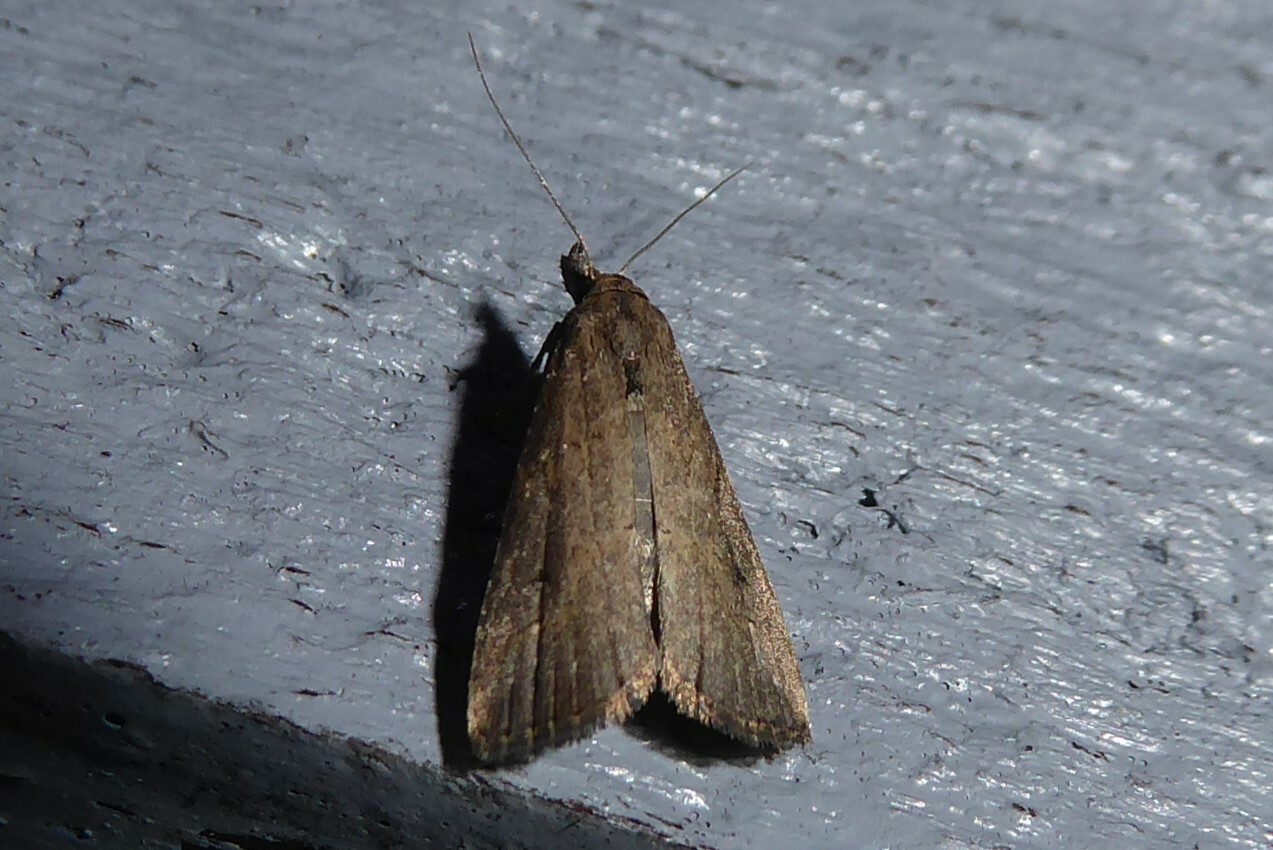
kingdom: Animalia
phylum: Arthropoda
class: Insecta
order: Lepidoptera
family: Erebidae
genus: Schrankia
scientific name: Schrankia costaestrigalis
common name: Pinion-streaked snout
